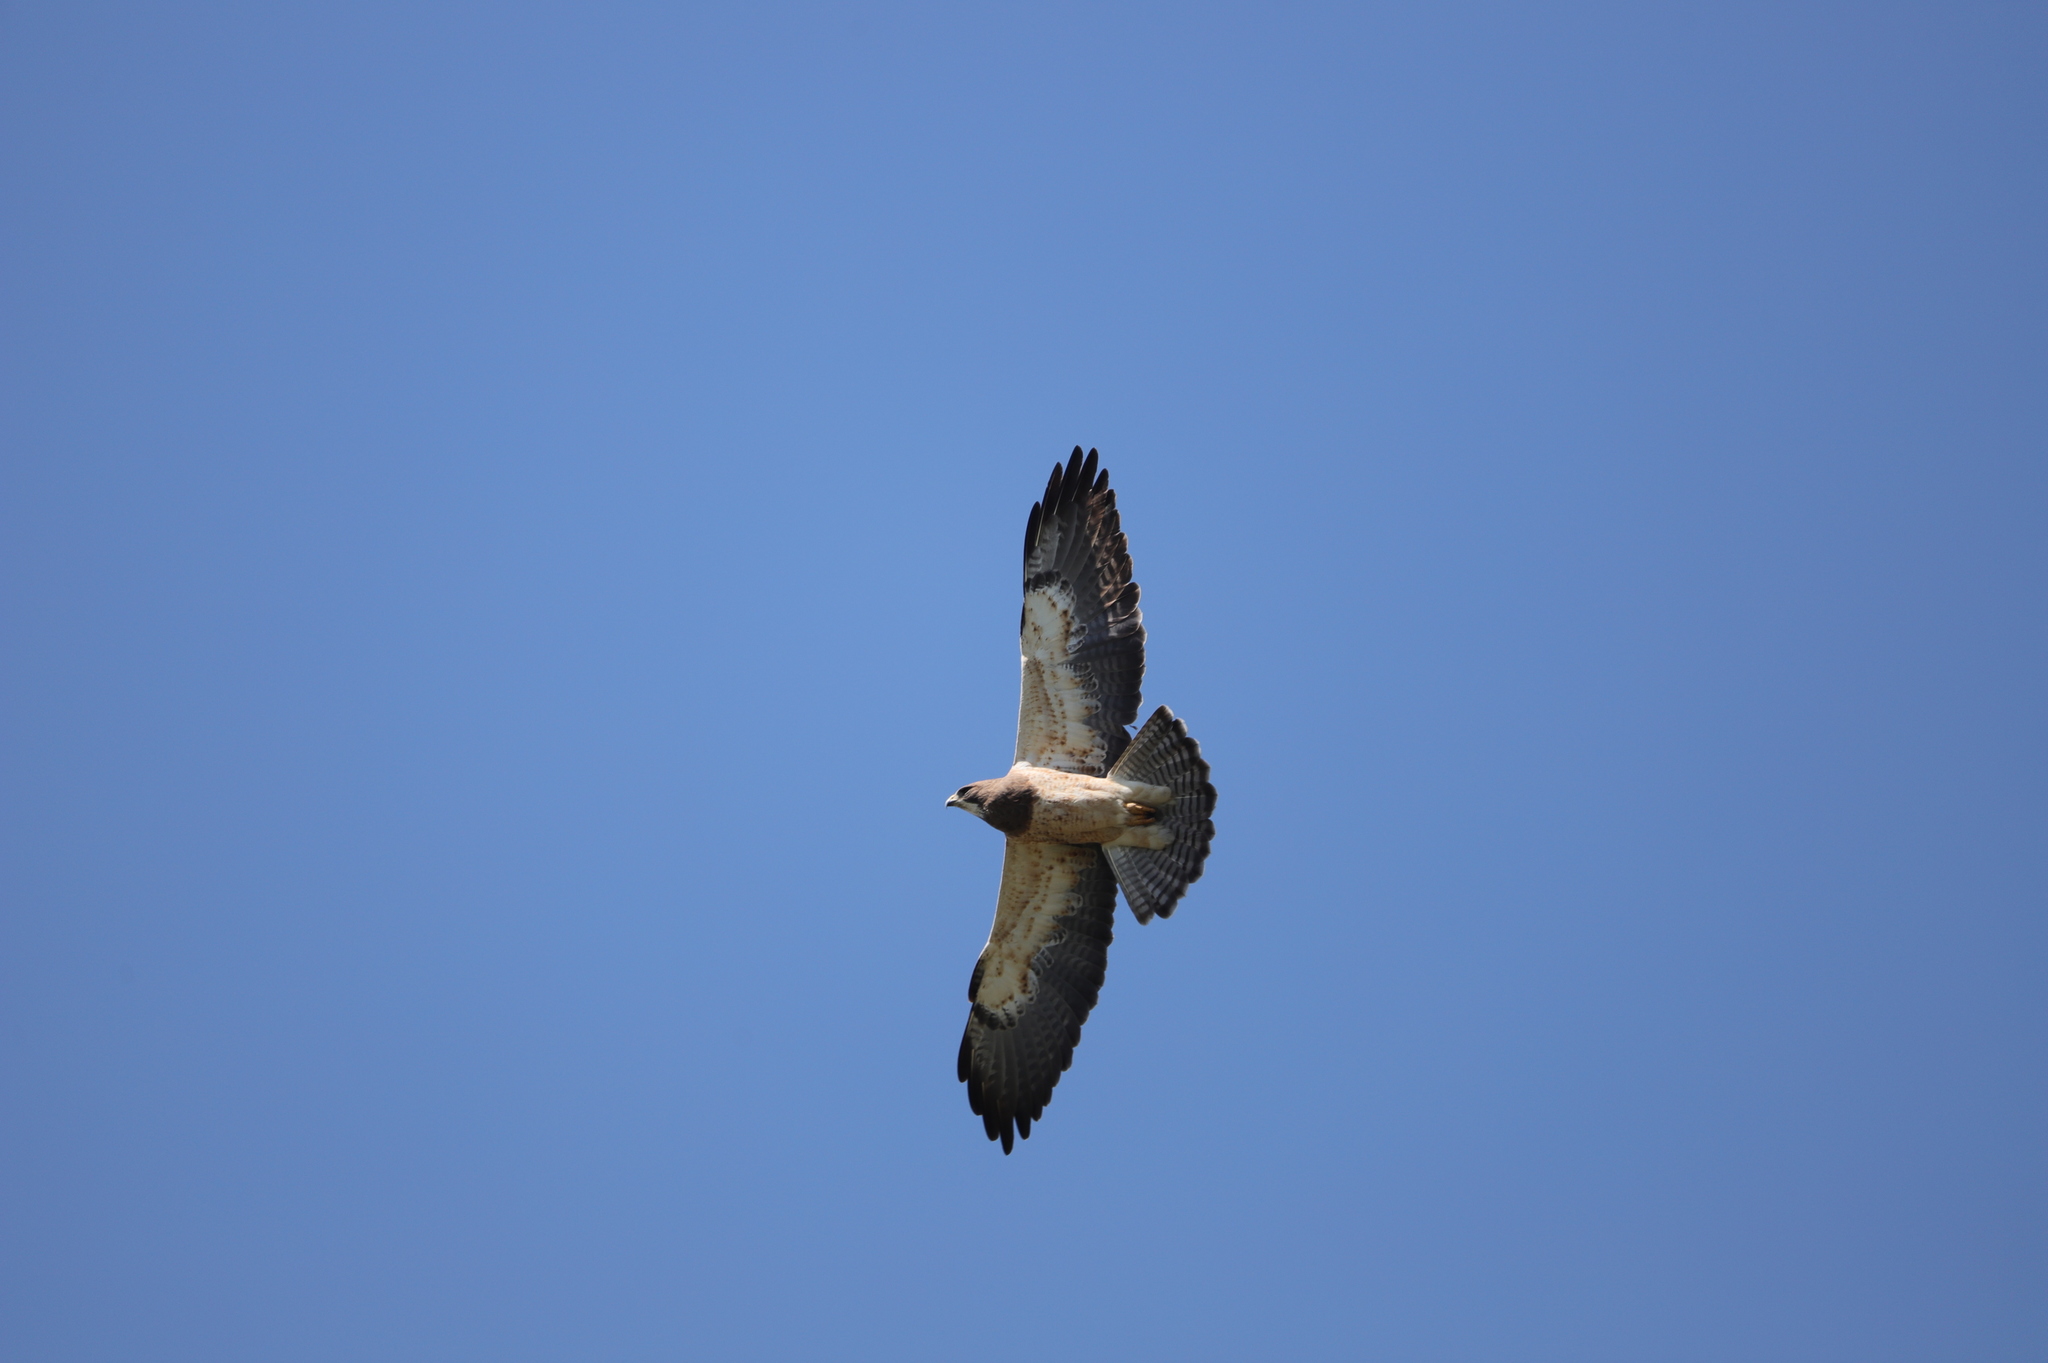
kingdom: Animalia
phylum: Chordata
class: Aves
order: Accipitriformes
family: Accipitridae
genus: Buteo
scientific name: Buteo swainsoni
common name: Swainson's hawk
